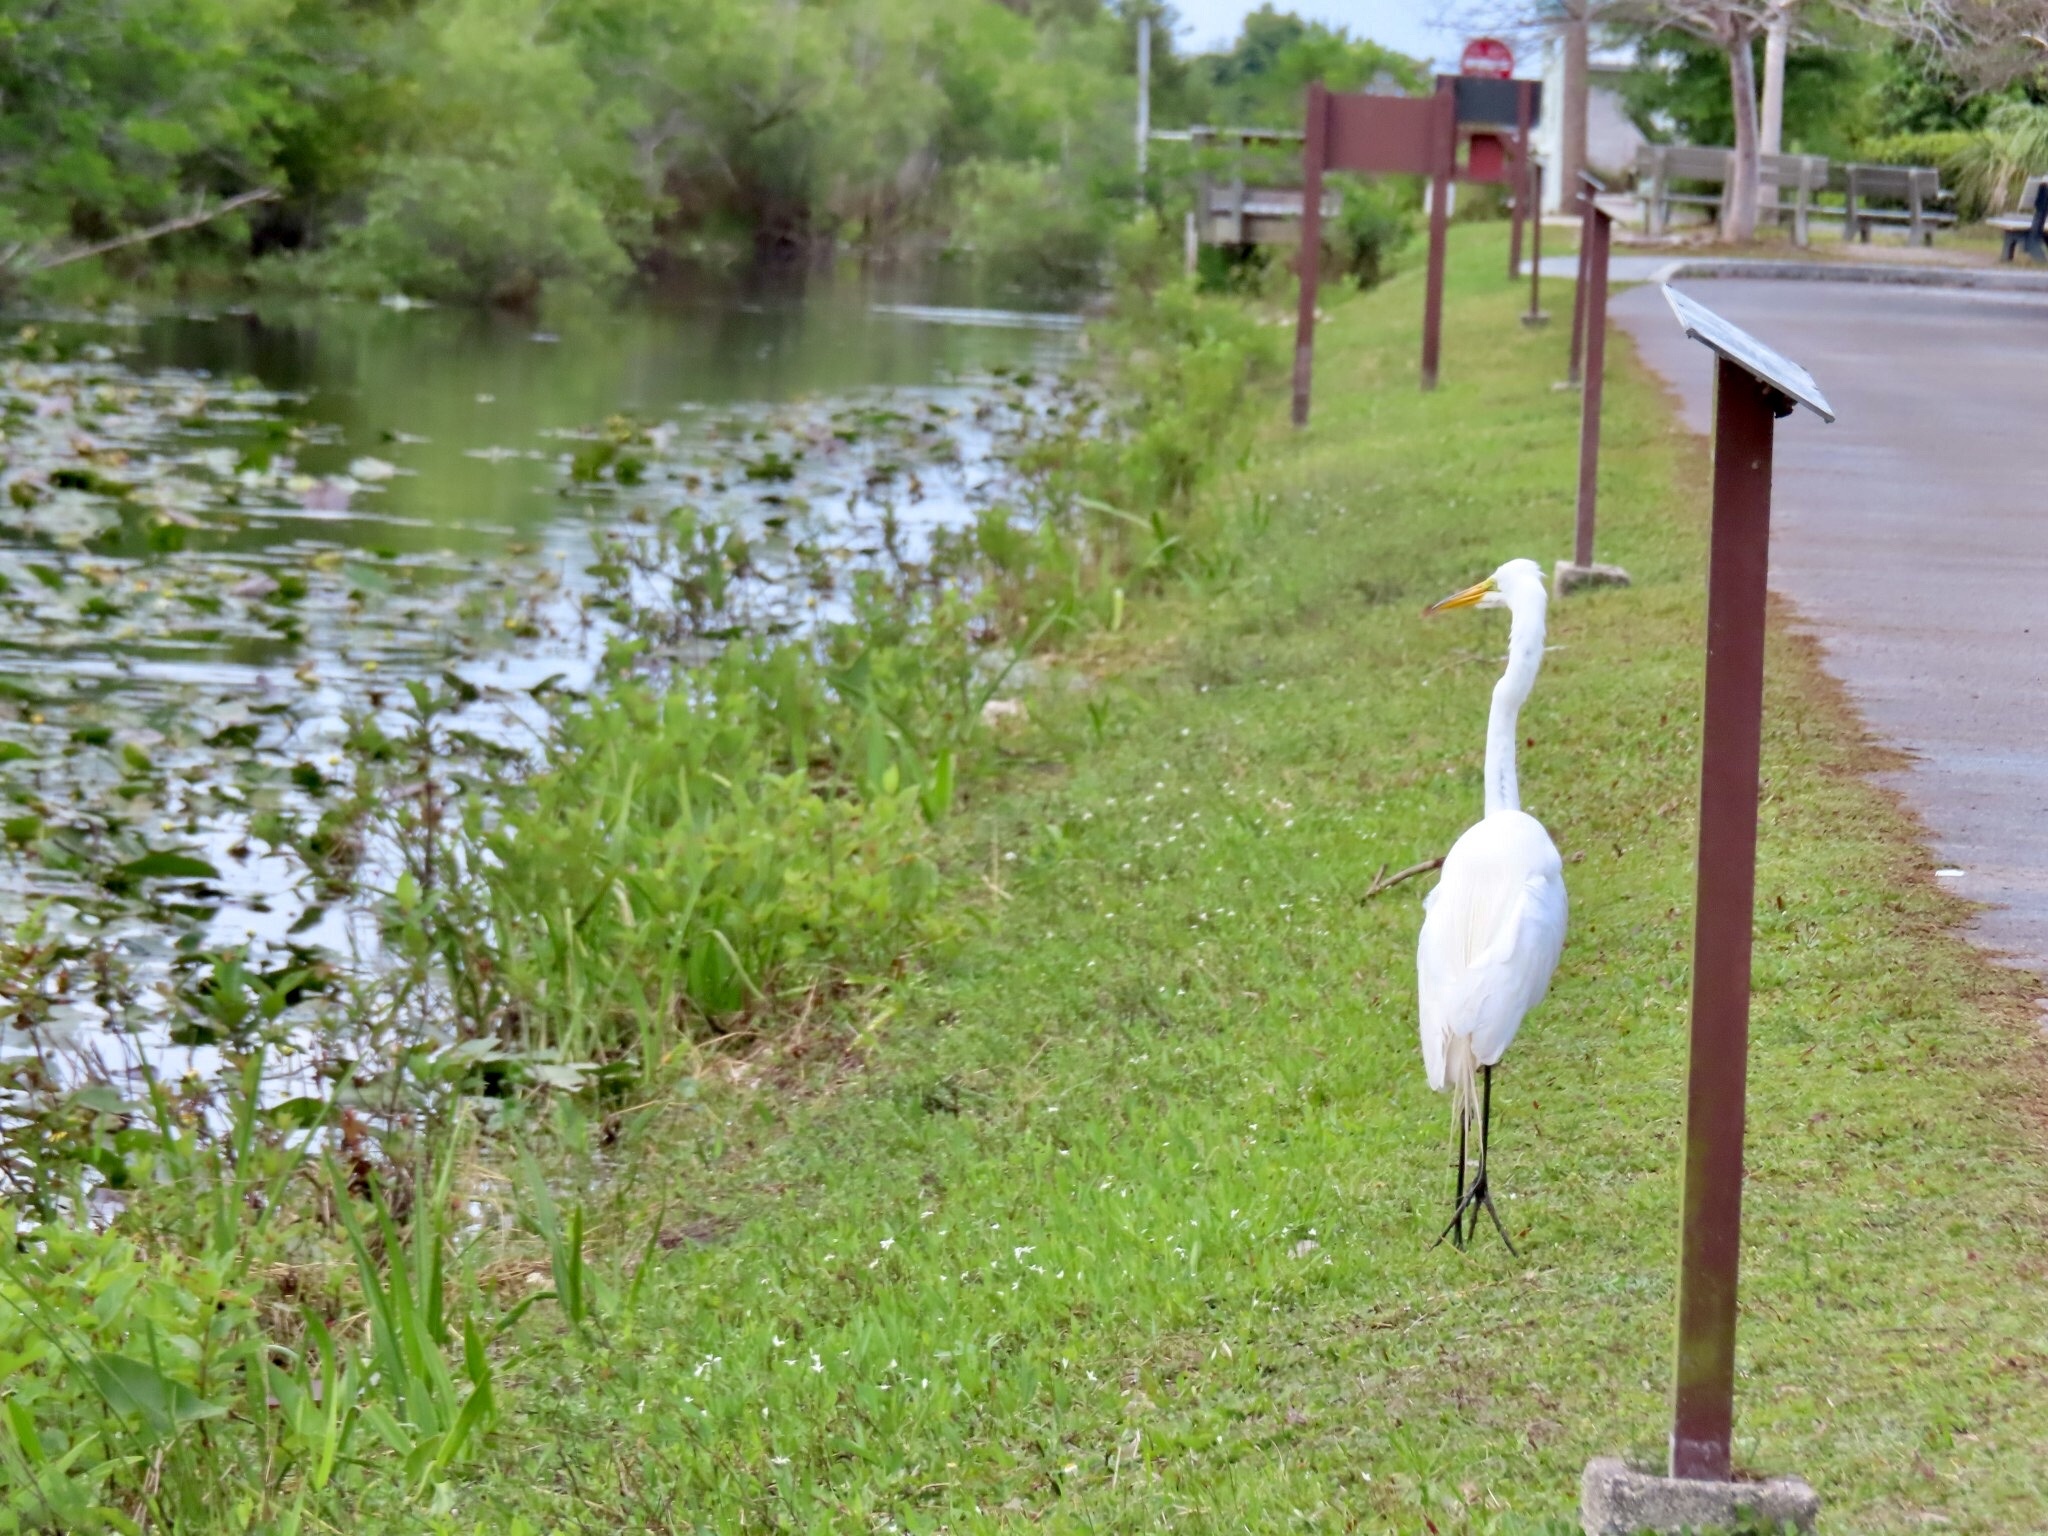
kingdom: Animalia
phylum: Chordata
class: Aves
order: Pelecaniformes
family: Ardeidae
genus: Ardea
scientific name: Ardea alba
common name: Great egret
